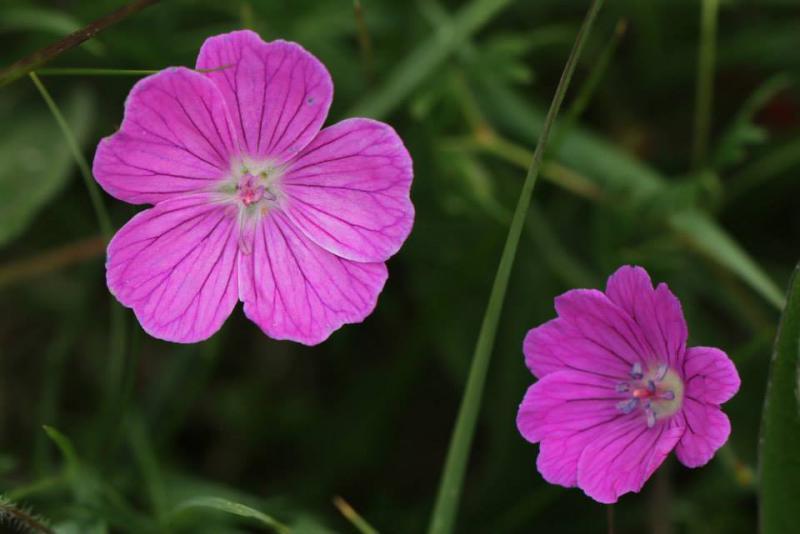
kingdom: Plantae
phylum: Tracheophyta
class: Magnoliopsida
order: Geraniales
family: Geraniaceae
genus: Geranium
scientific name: Geranium sanguineum
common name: Bloody crane's-bill
